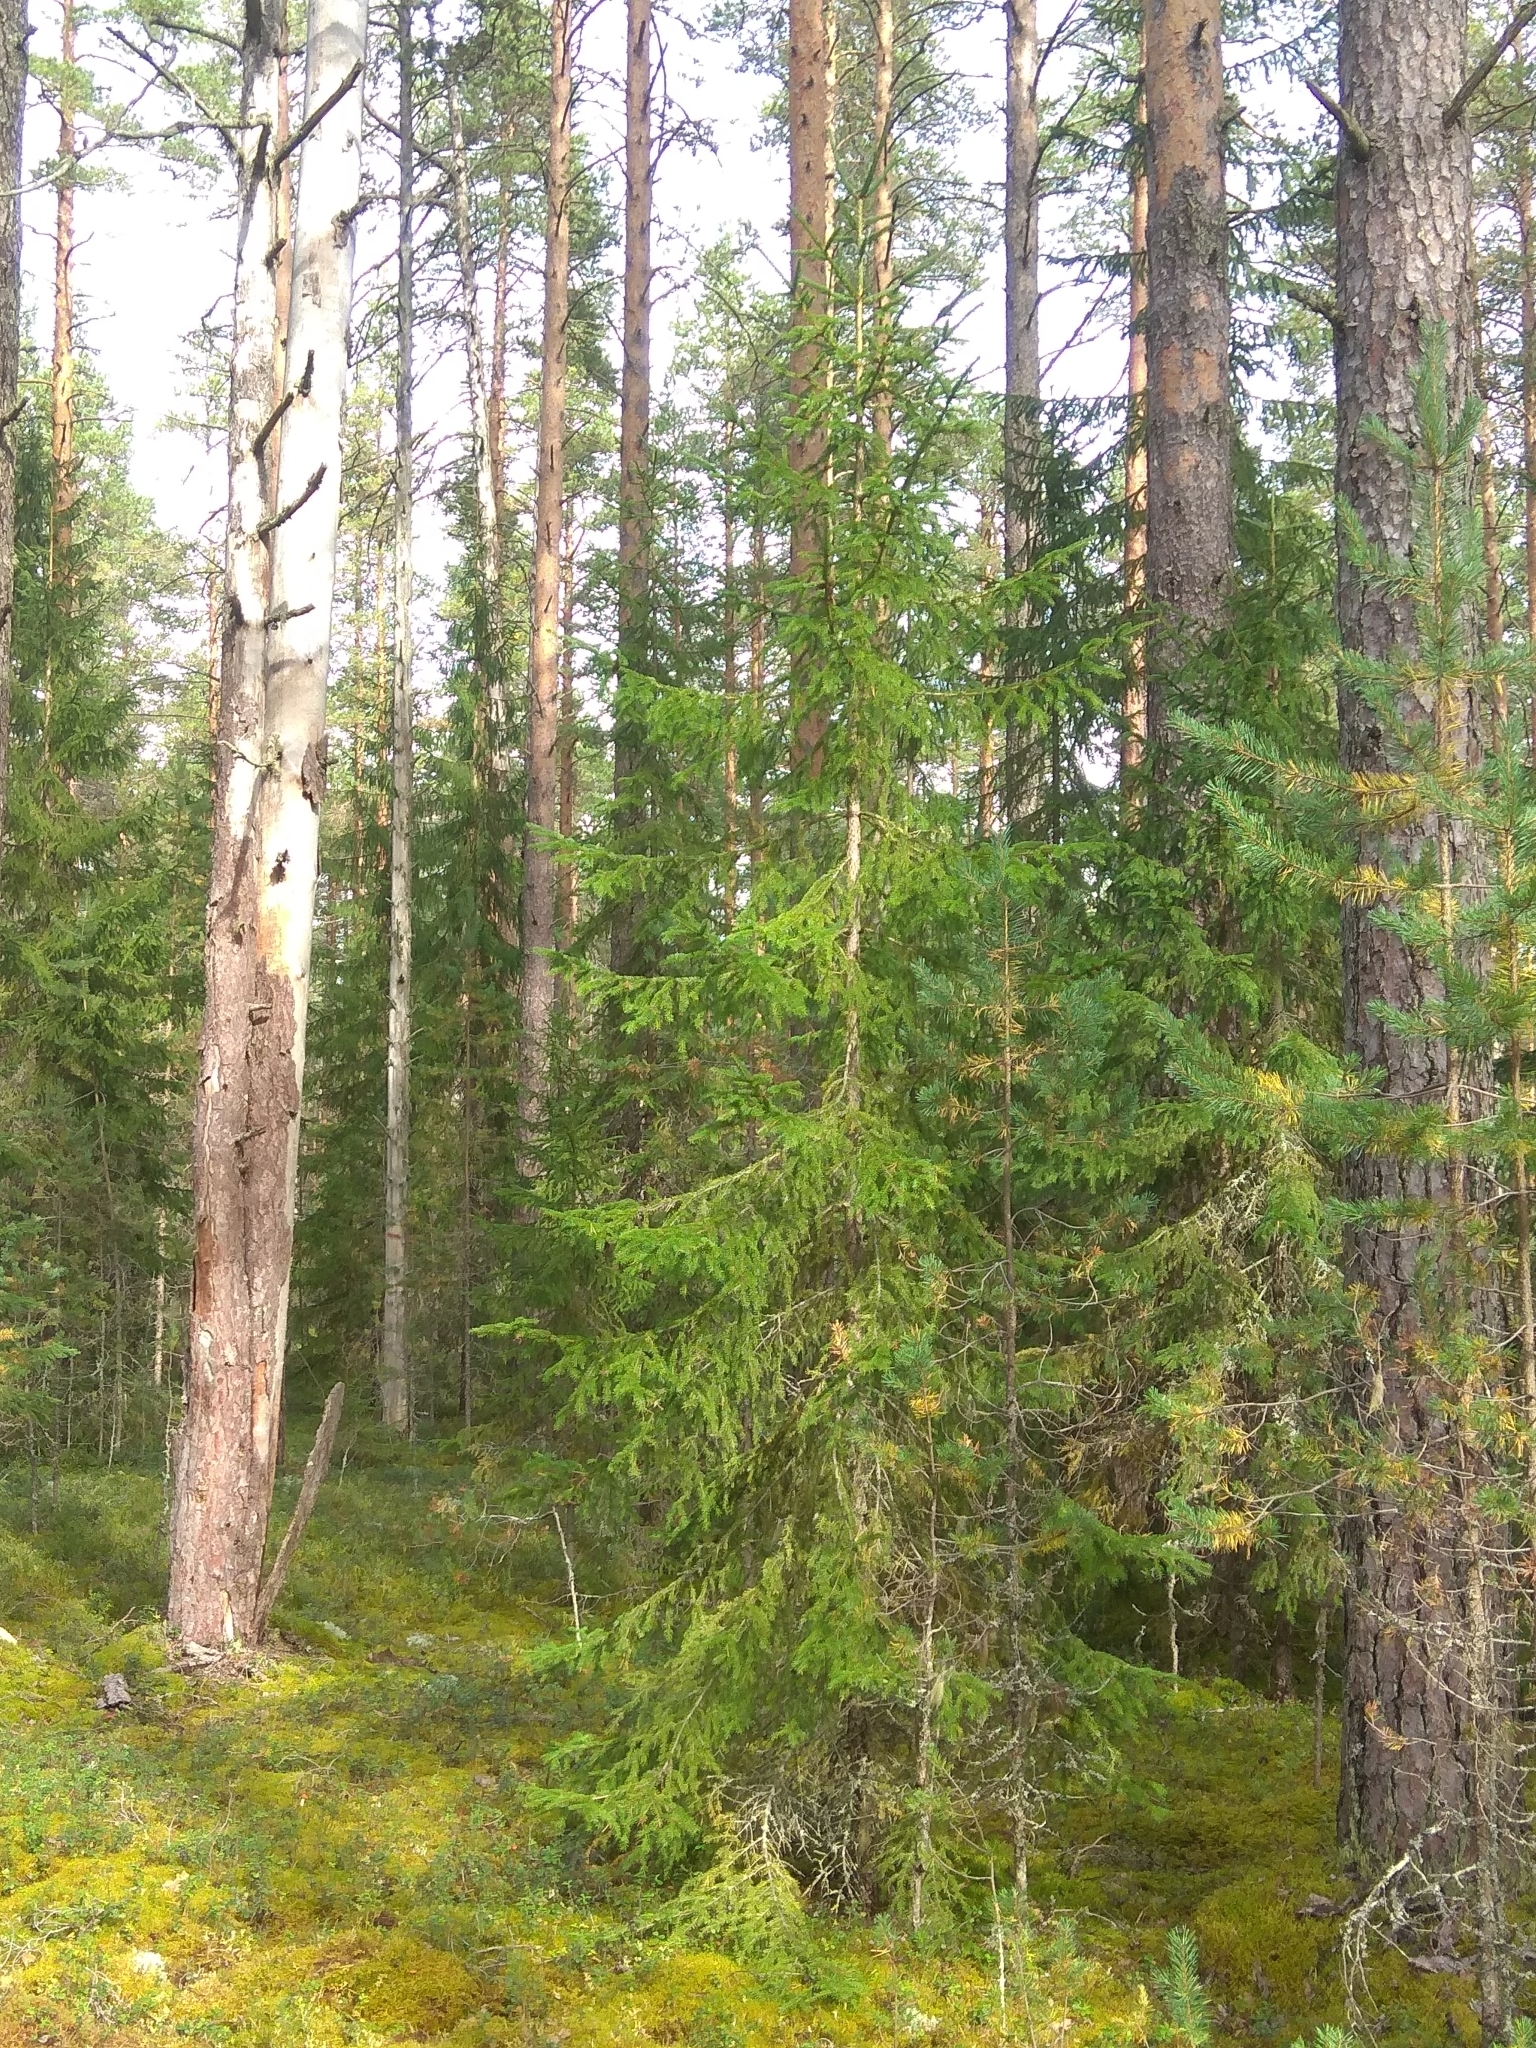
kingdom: Plantae
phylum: Tracheophyta
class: Pinopsida
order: Pinales
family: Pinaceae
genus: Picea
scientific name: Picea abies
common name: Norway spruce
